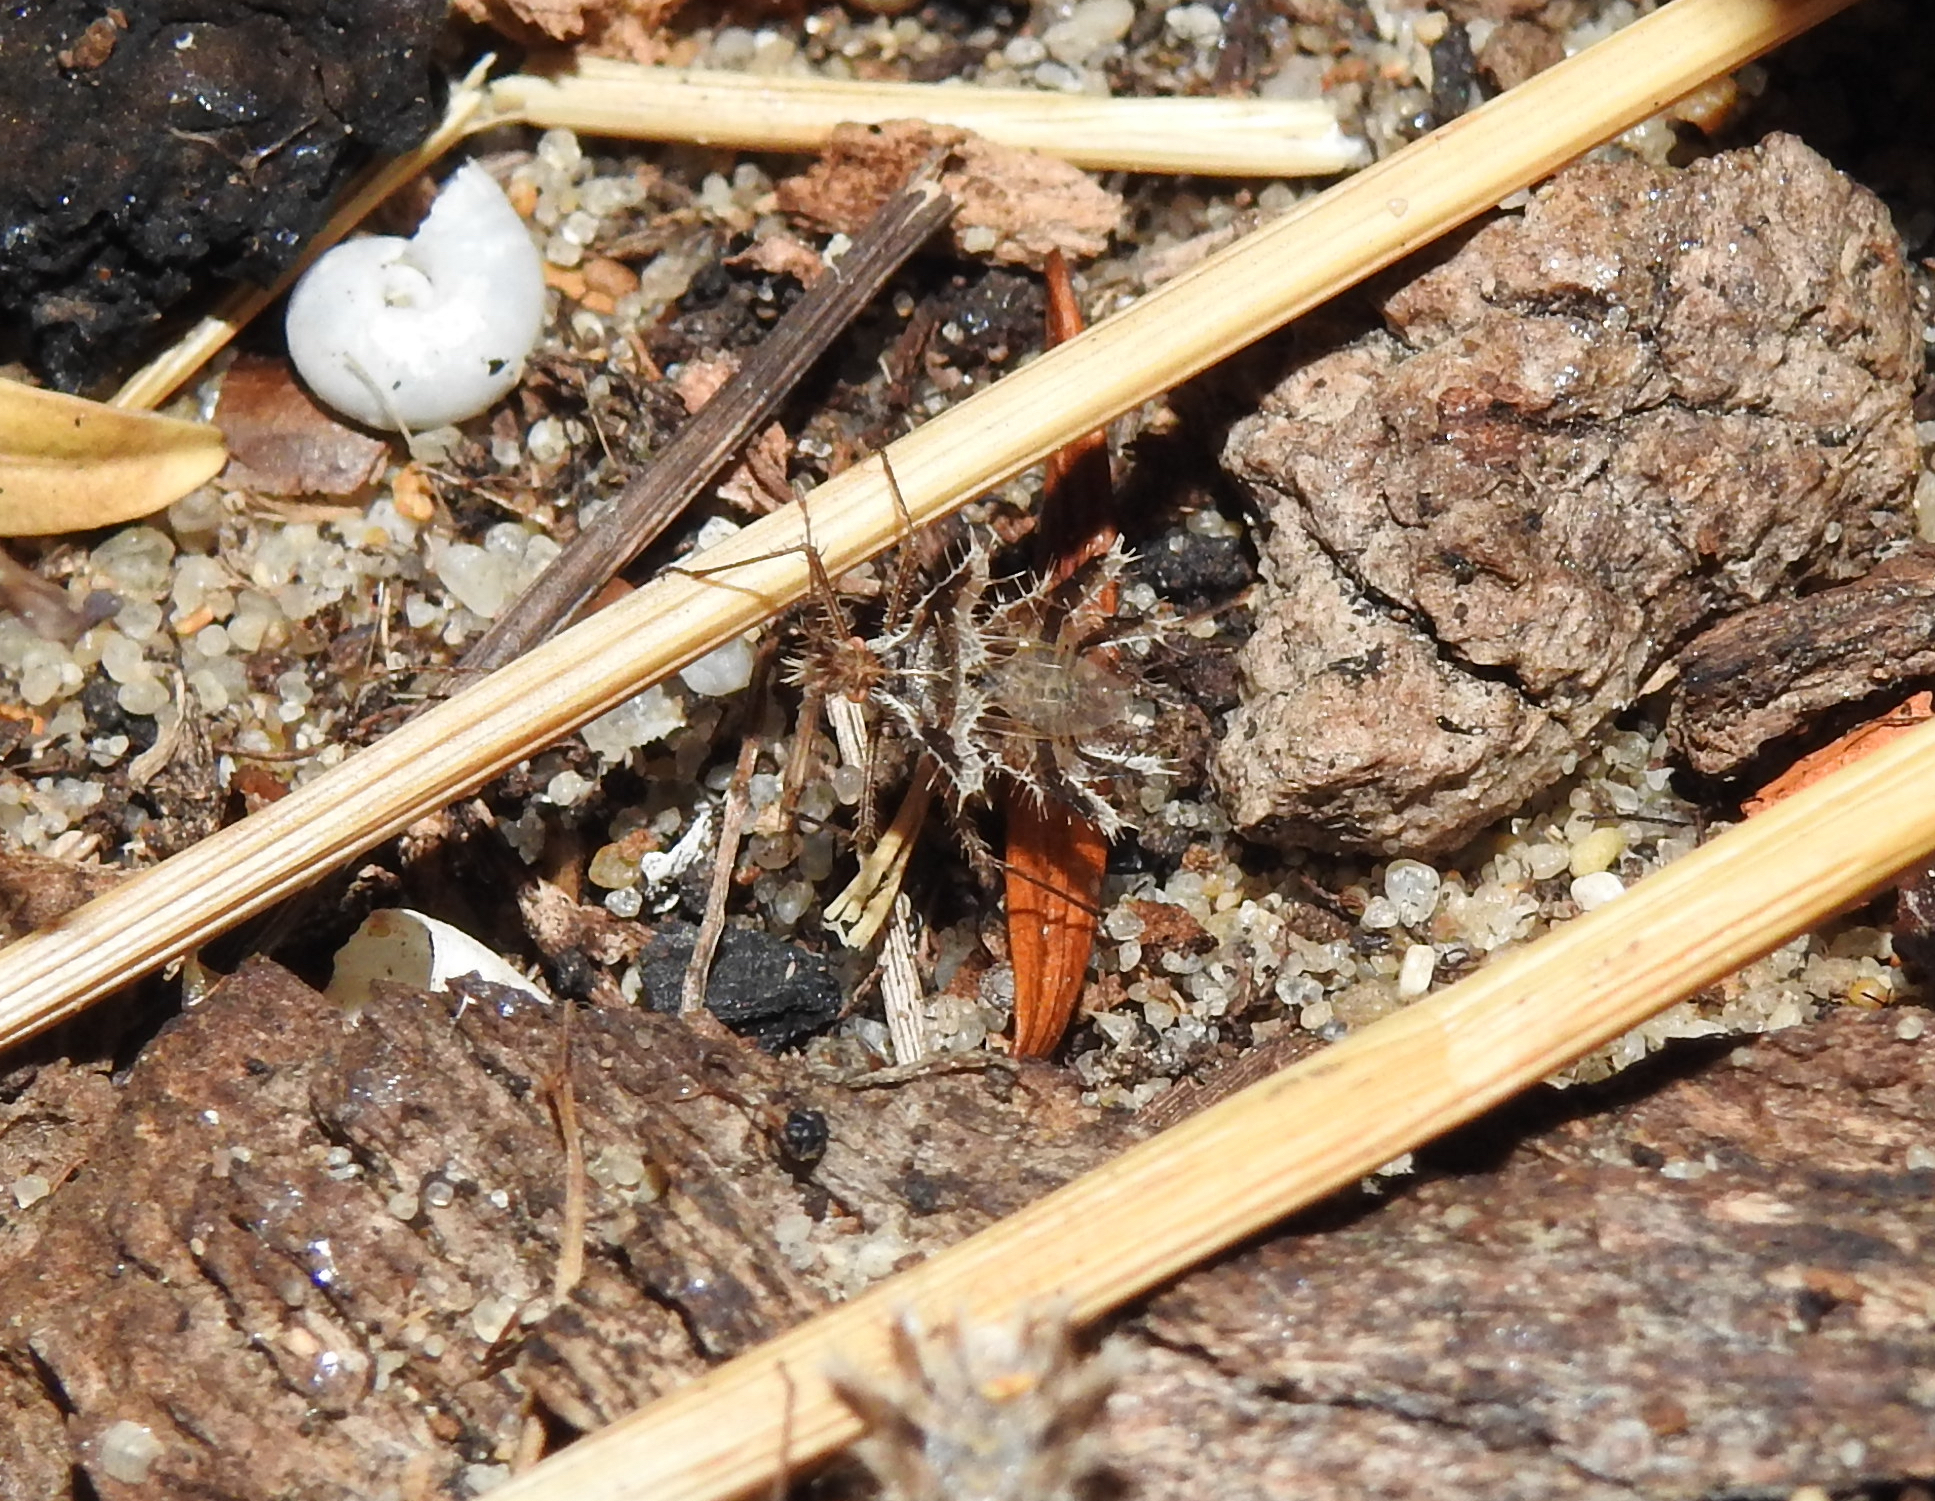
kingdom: Animalia
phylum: Arthropoda
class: Insecta
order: Hemiptera
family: Coreidae
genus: Phyllomorpha
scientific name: Phyllomorpha laciniata
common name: Golden egg bug
